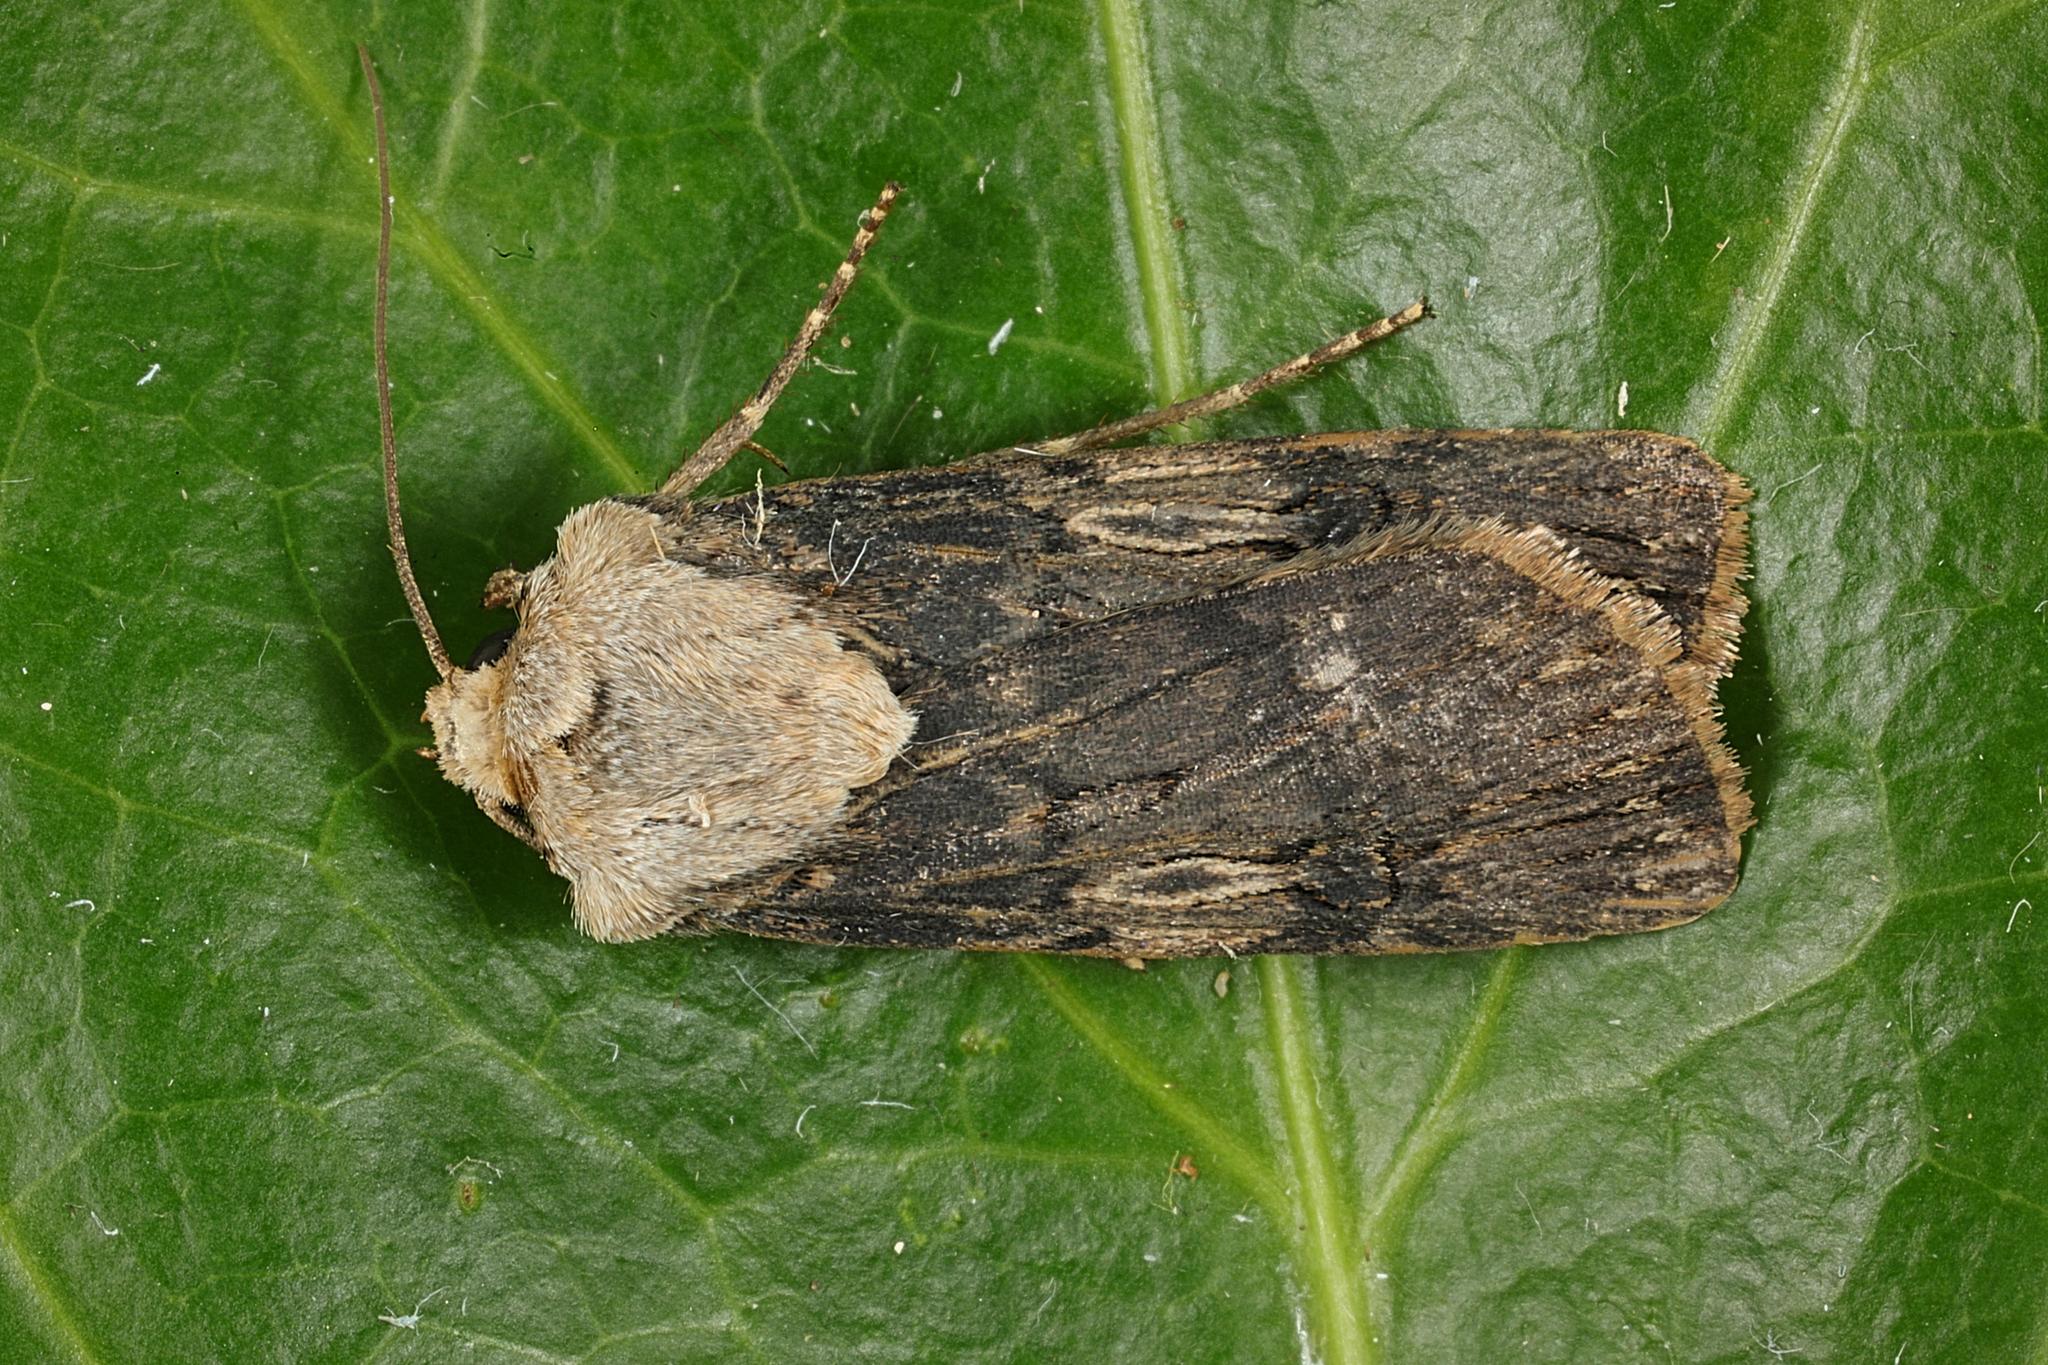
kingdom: Animalia
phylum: Arthropoda
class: Insecta
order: Lepidoptera
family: Noctuidae
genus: Agrotis
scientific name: Agrotis puta
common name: Shuttle-shaped dart
